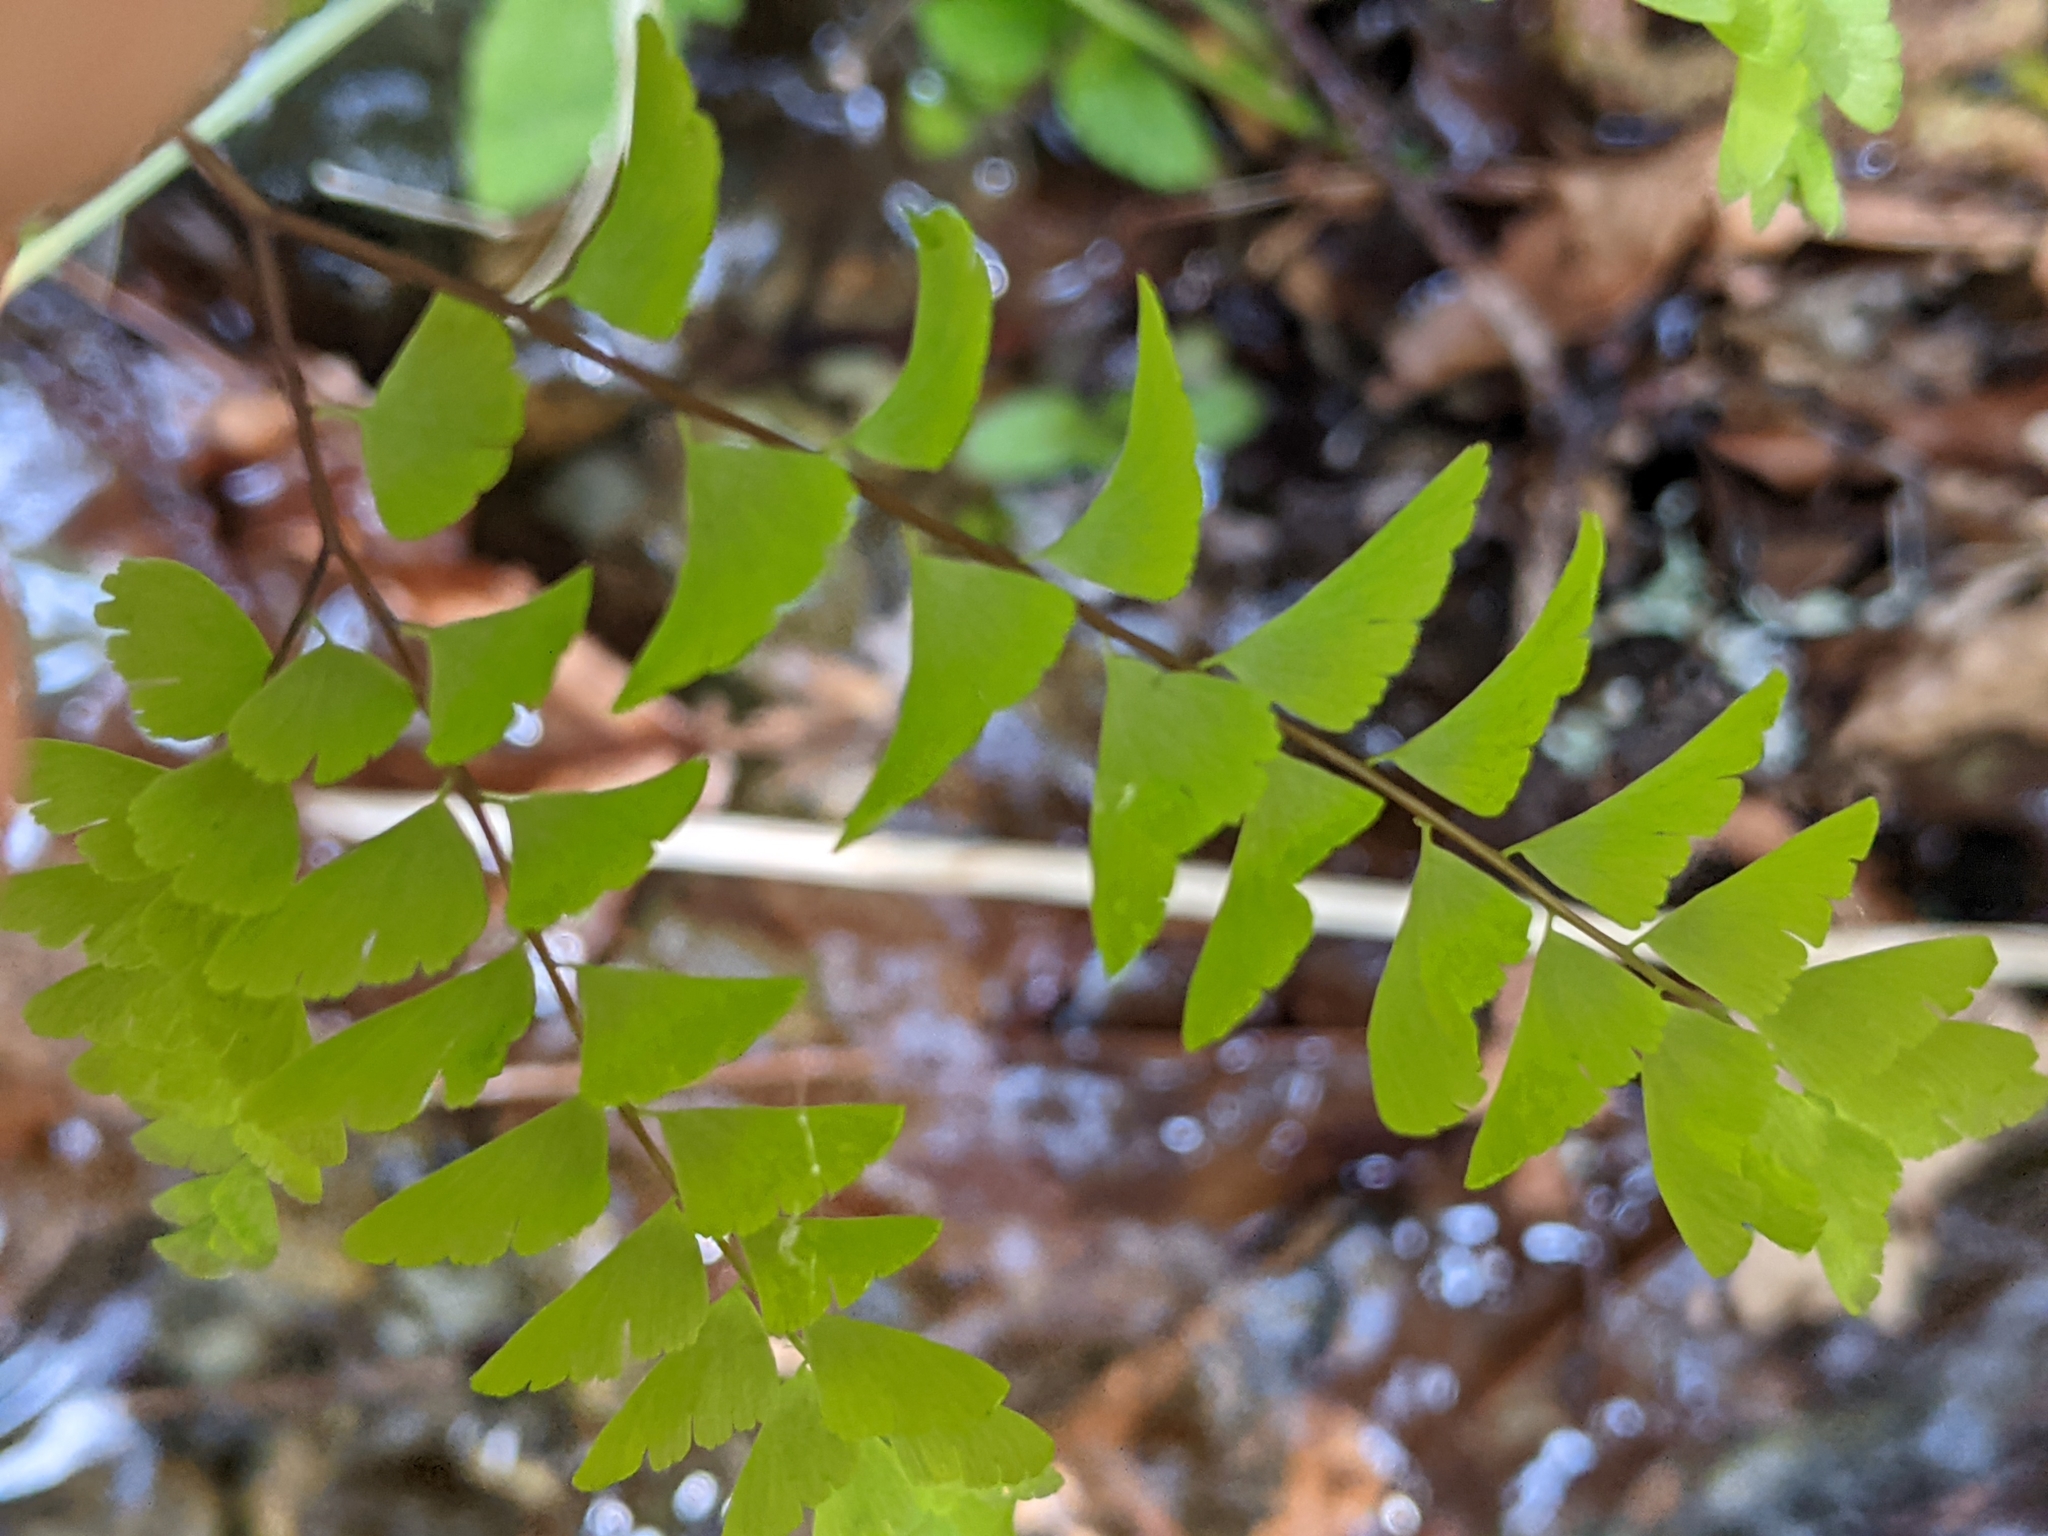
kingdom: Plantae
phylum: Tracheophyta
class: Polypodiopsida
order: Polypodiales
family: Pteridaceae
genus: Adiantum
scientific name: Adiantum aleuticum
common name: Aleutian maidenhair fern
